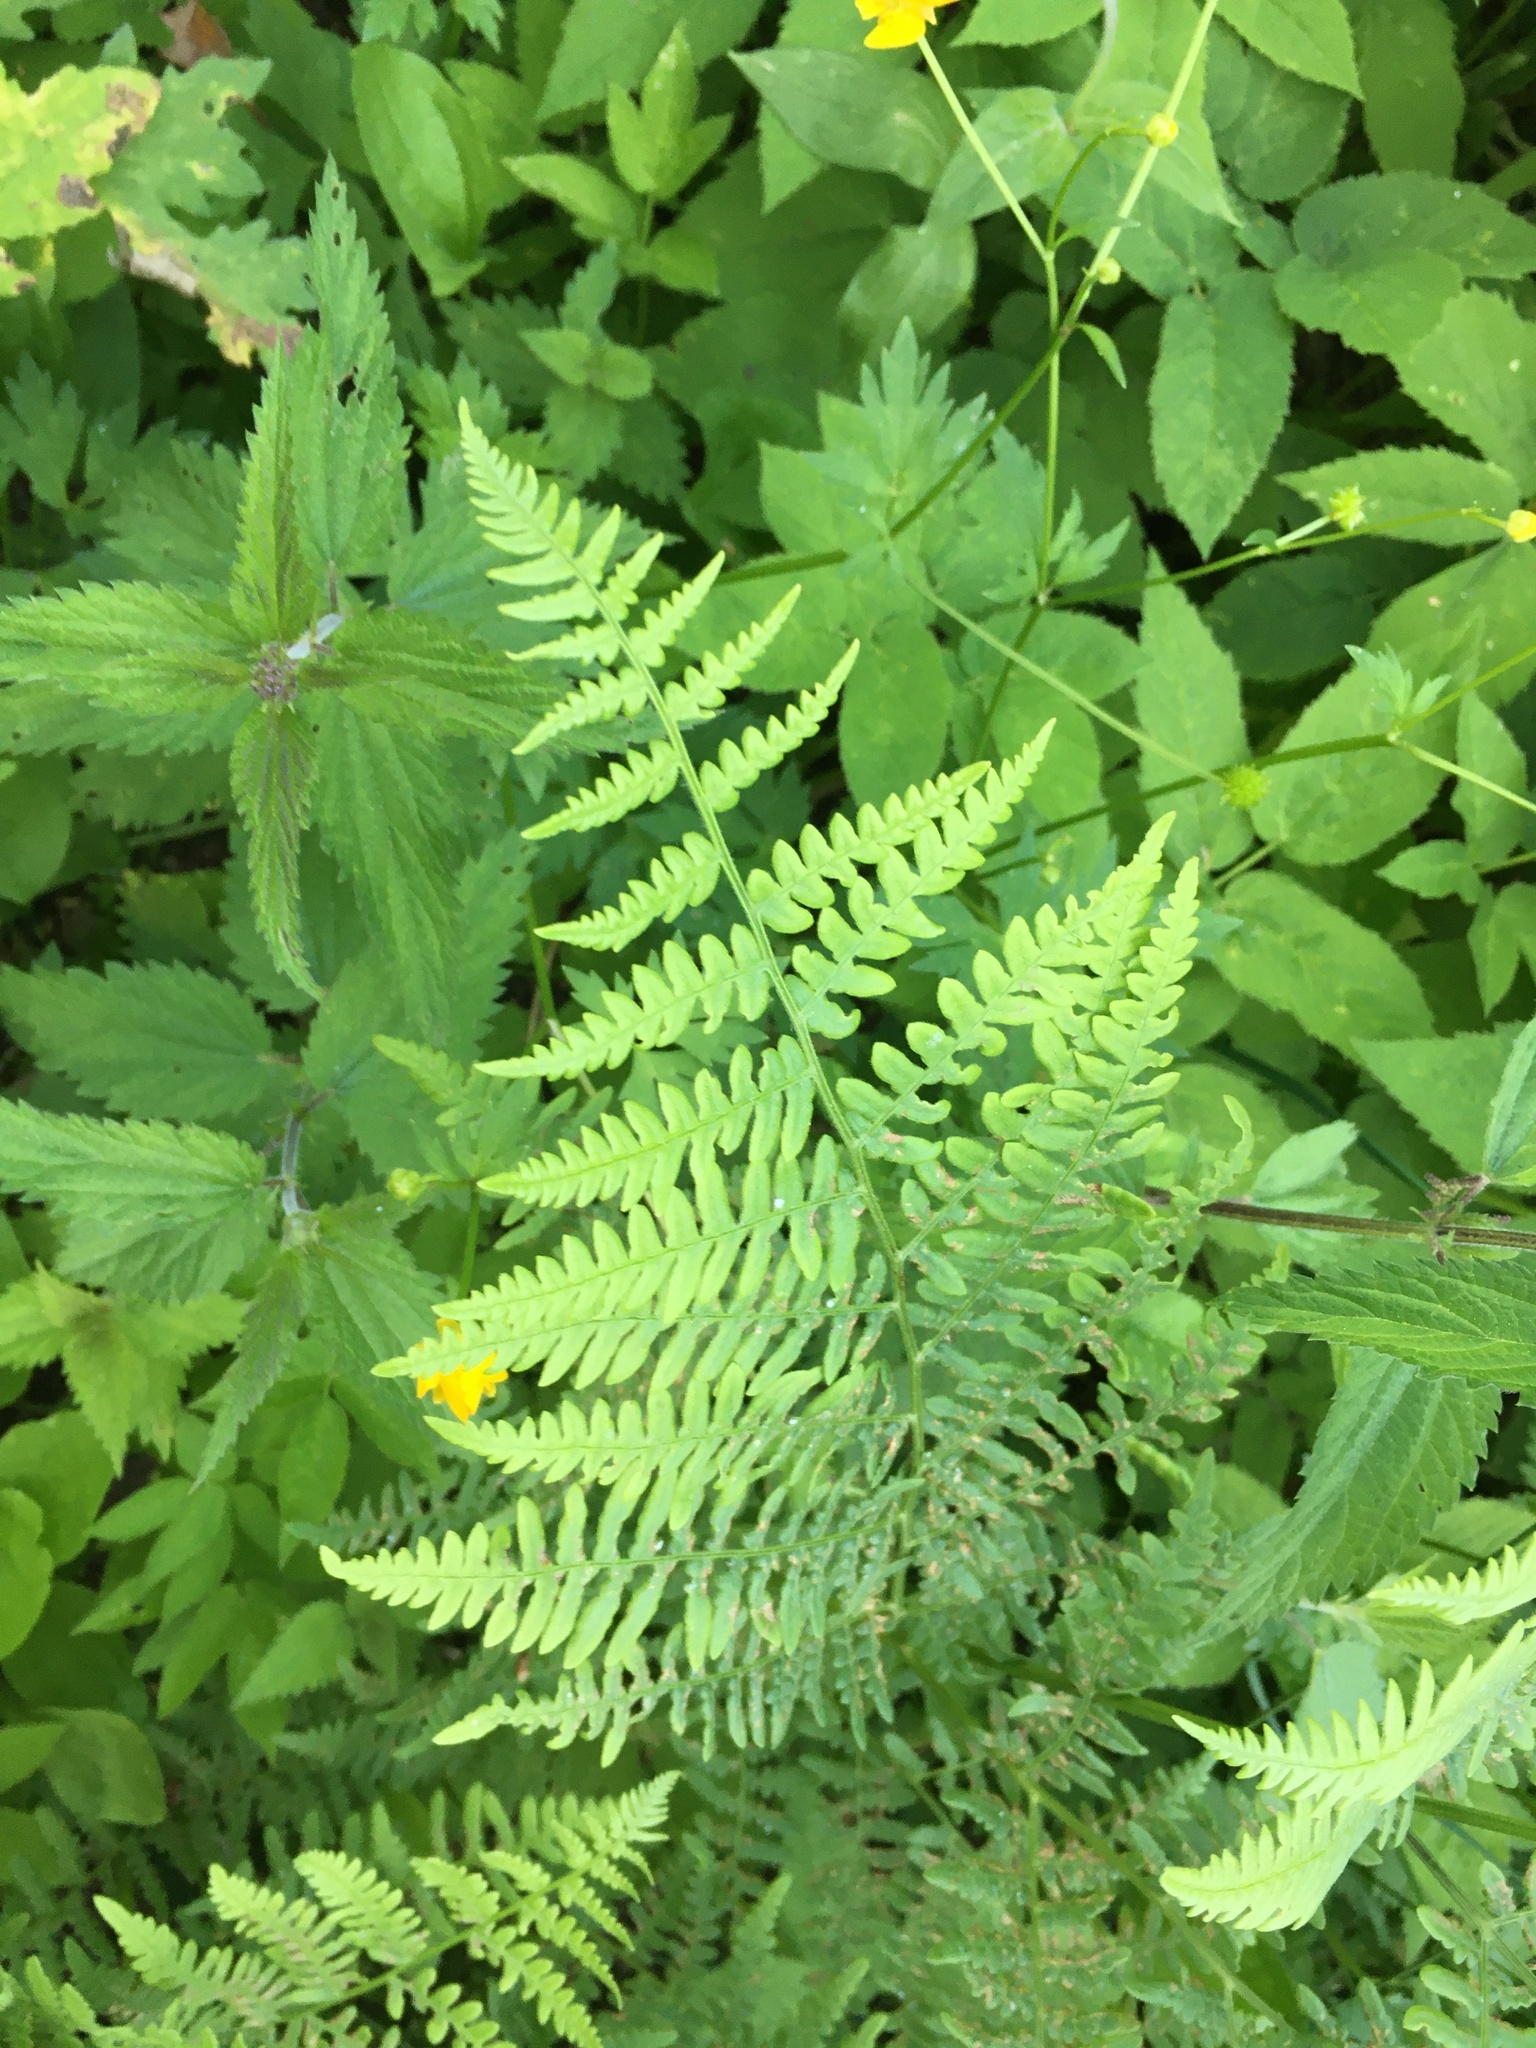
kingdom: Plantae
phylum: Tracheophyta
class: Polypodiopsida
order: Polypodiales
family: Dennstaedtiaceae
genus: Pteridium
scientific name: Pteridium aquilinum
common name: Bracken
